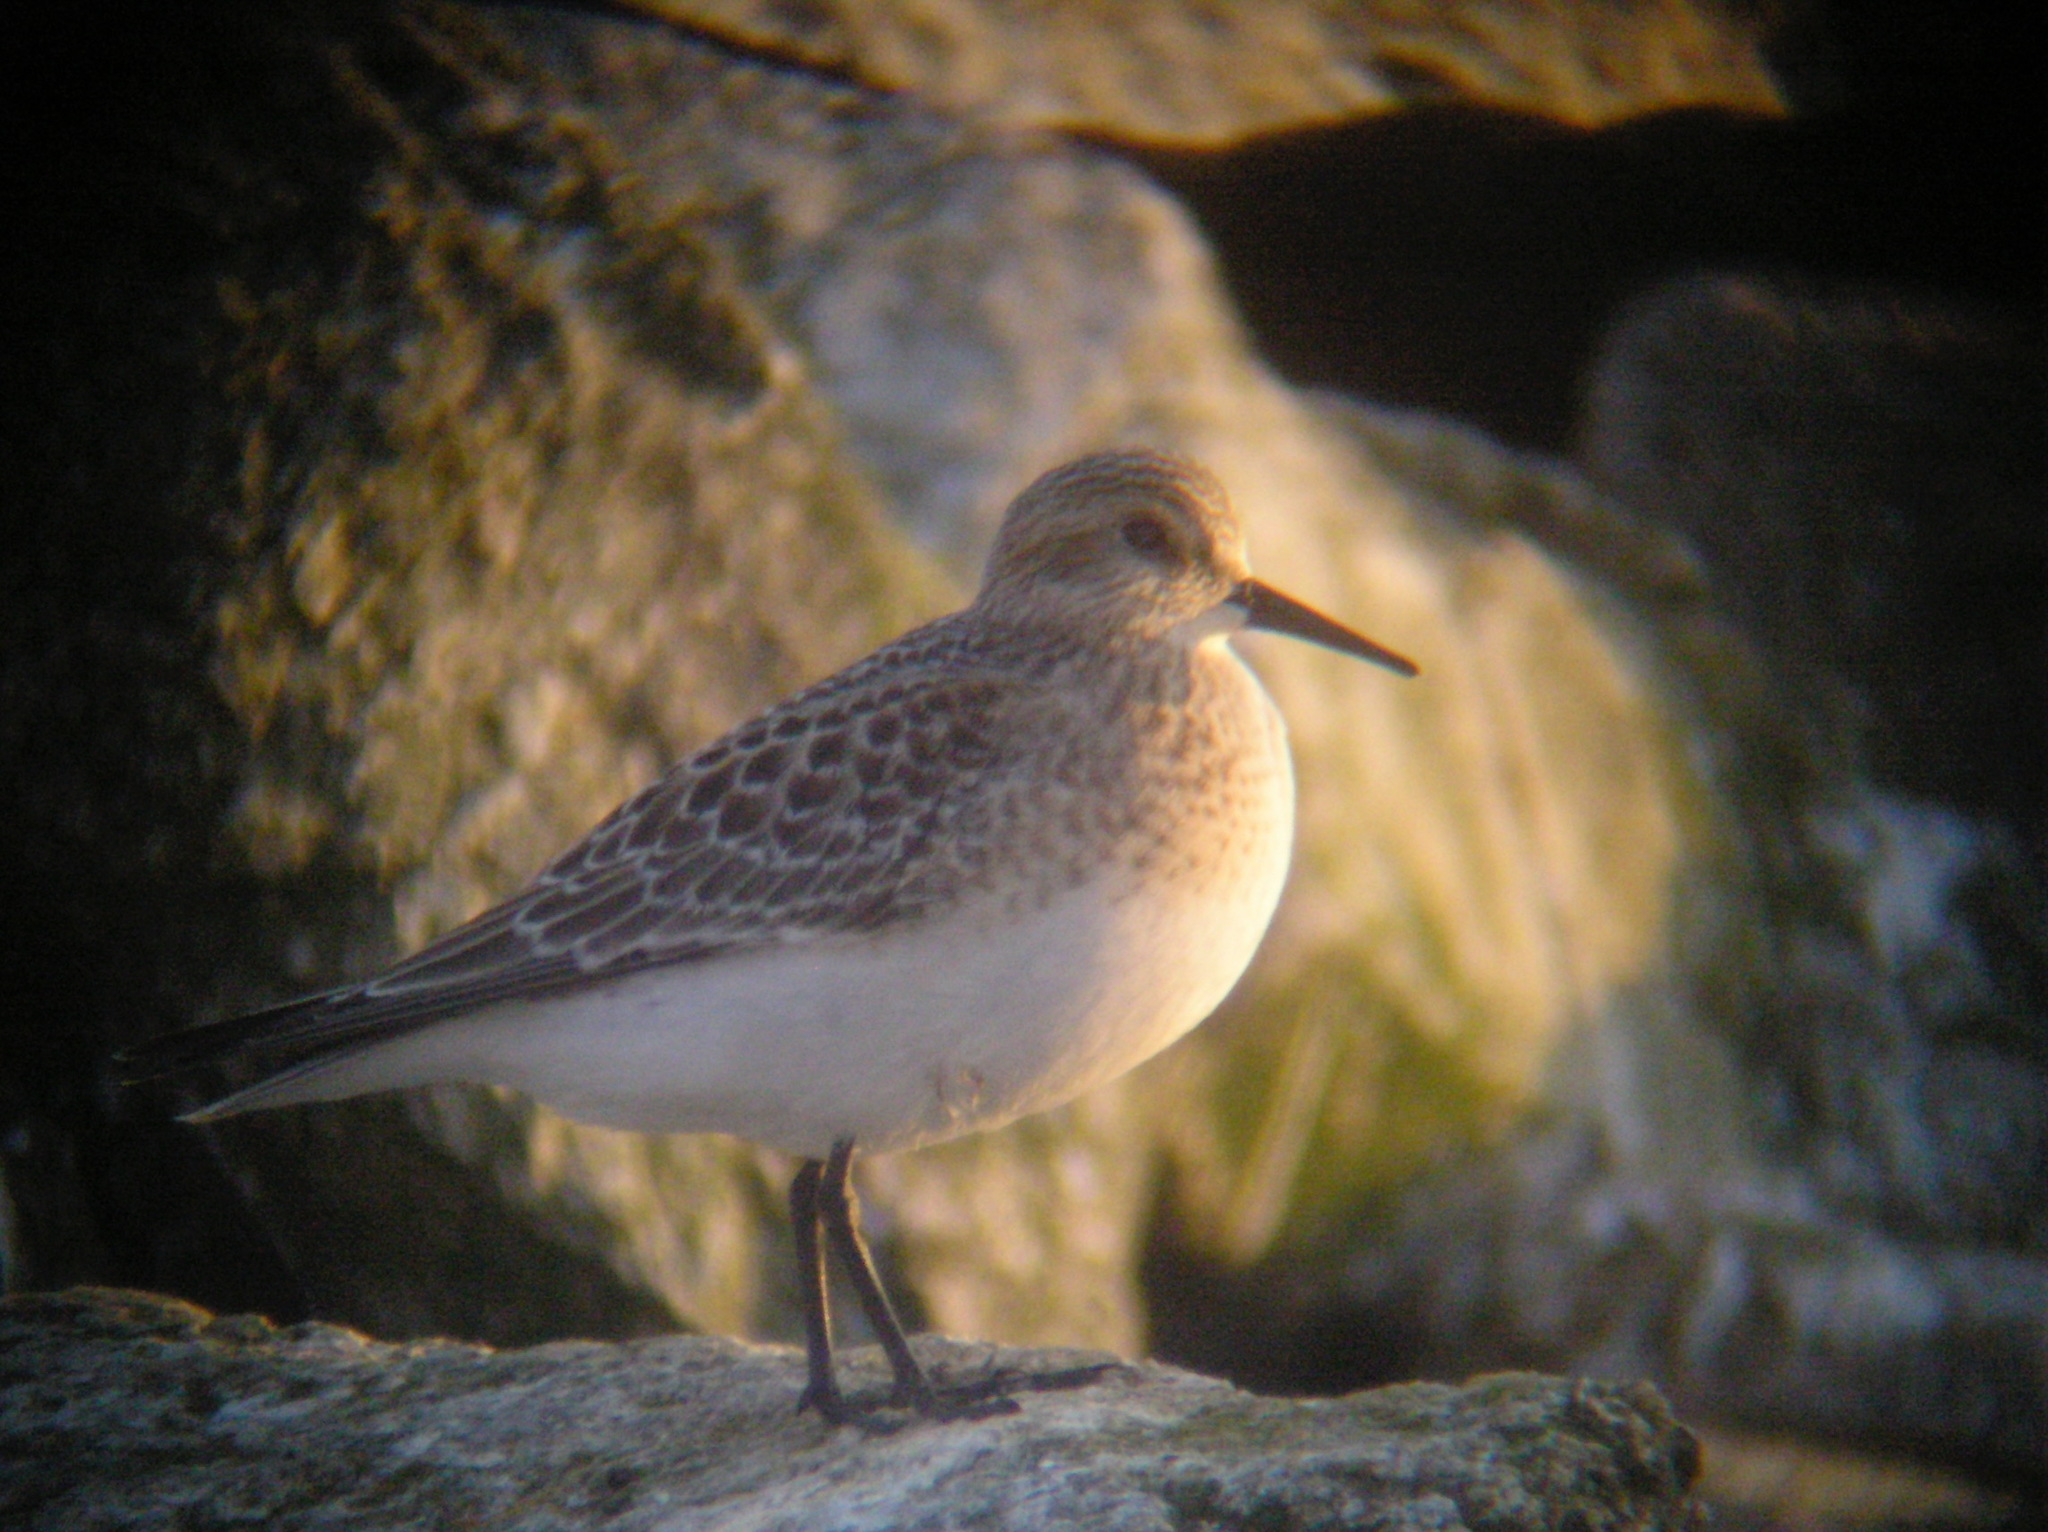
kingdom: Animalia
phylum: Chordata
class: Aves
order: Charadriiformes
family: Scolopacidae
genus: Calidris
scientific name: Calidris bairdii
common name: Baird's sandpiper
